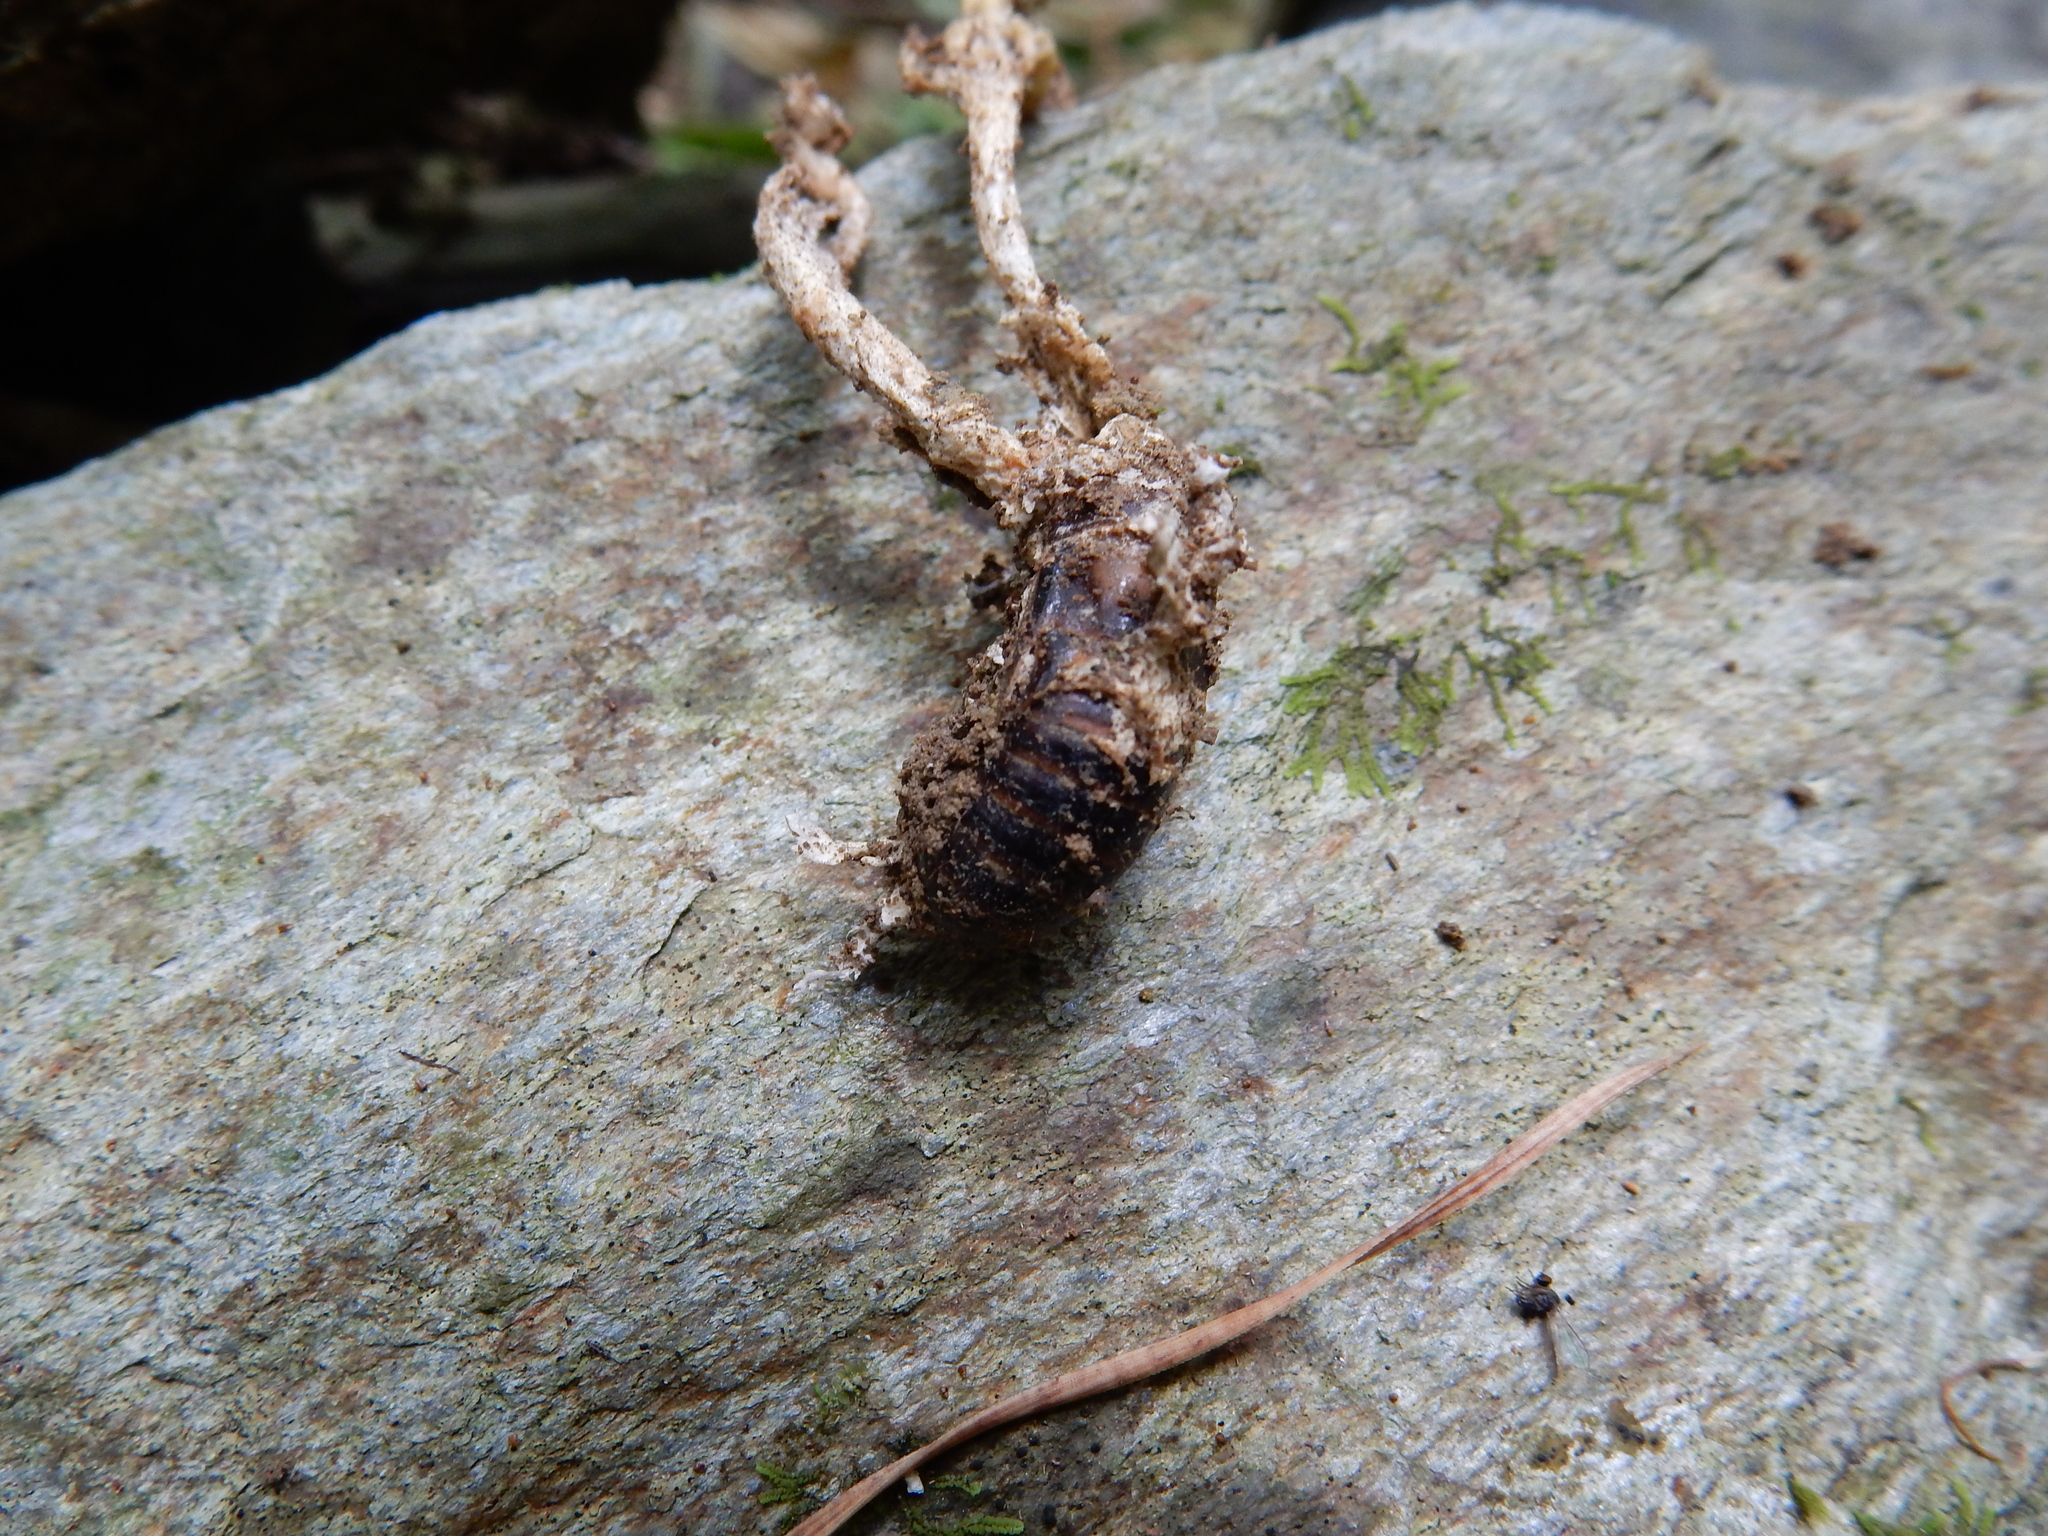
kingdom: Fungi
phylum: Ascomycota
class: Sordariomycetes
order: Hypocreales
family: Cordycipitaceae
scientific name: Cordycipitaceae
